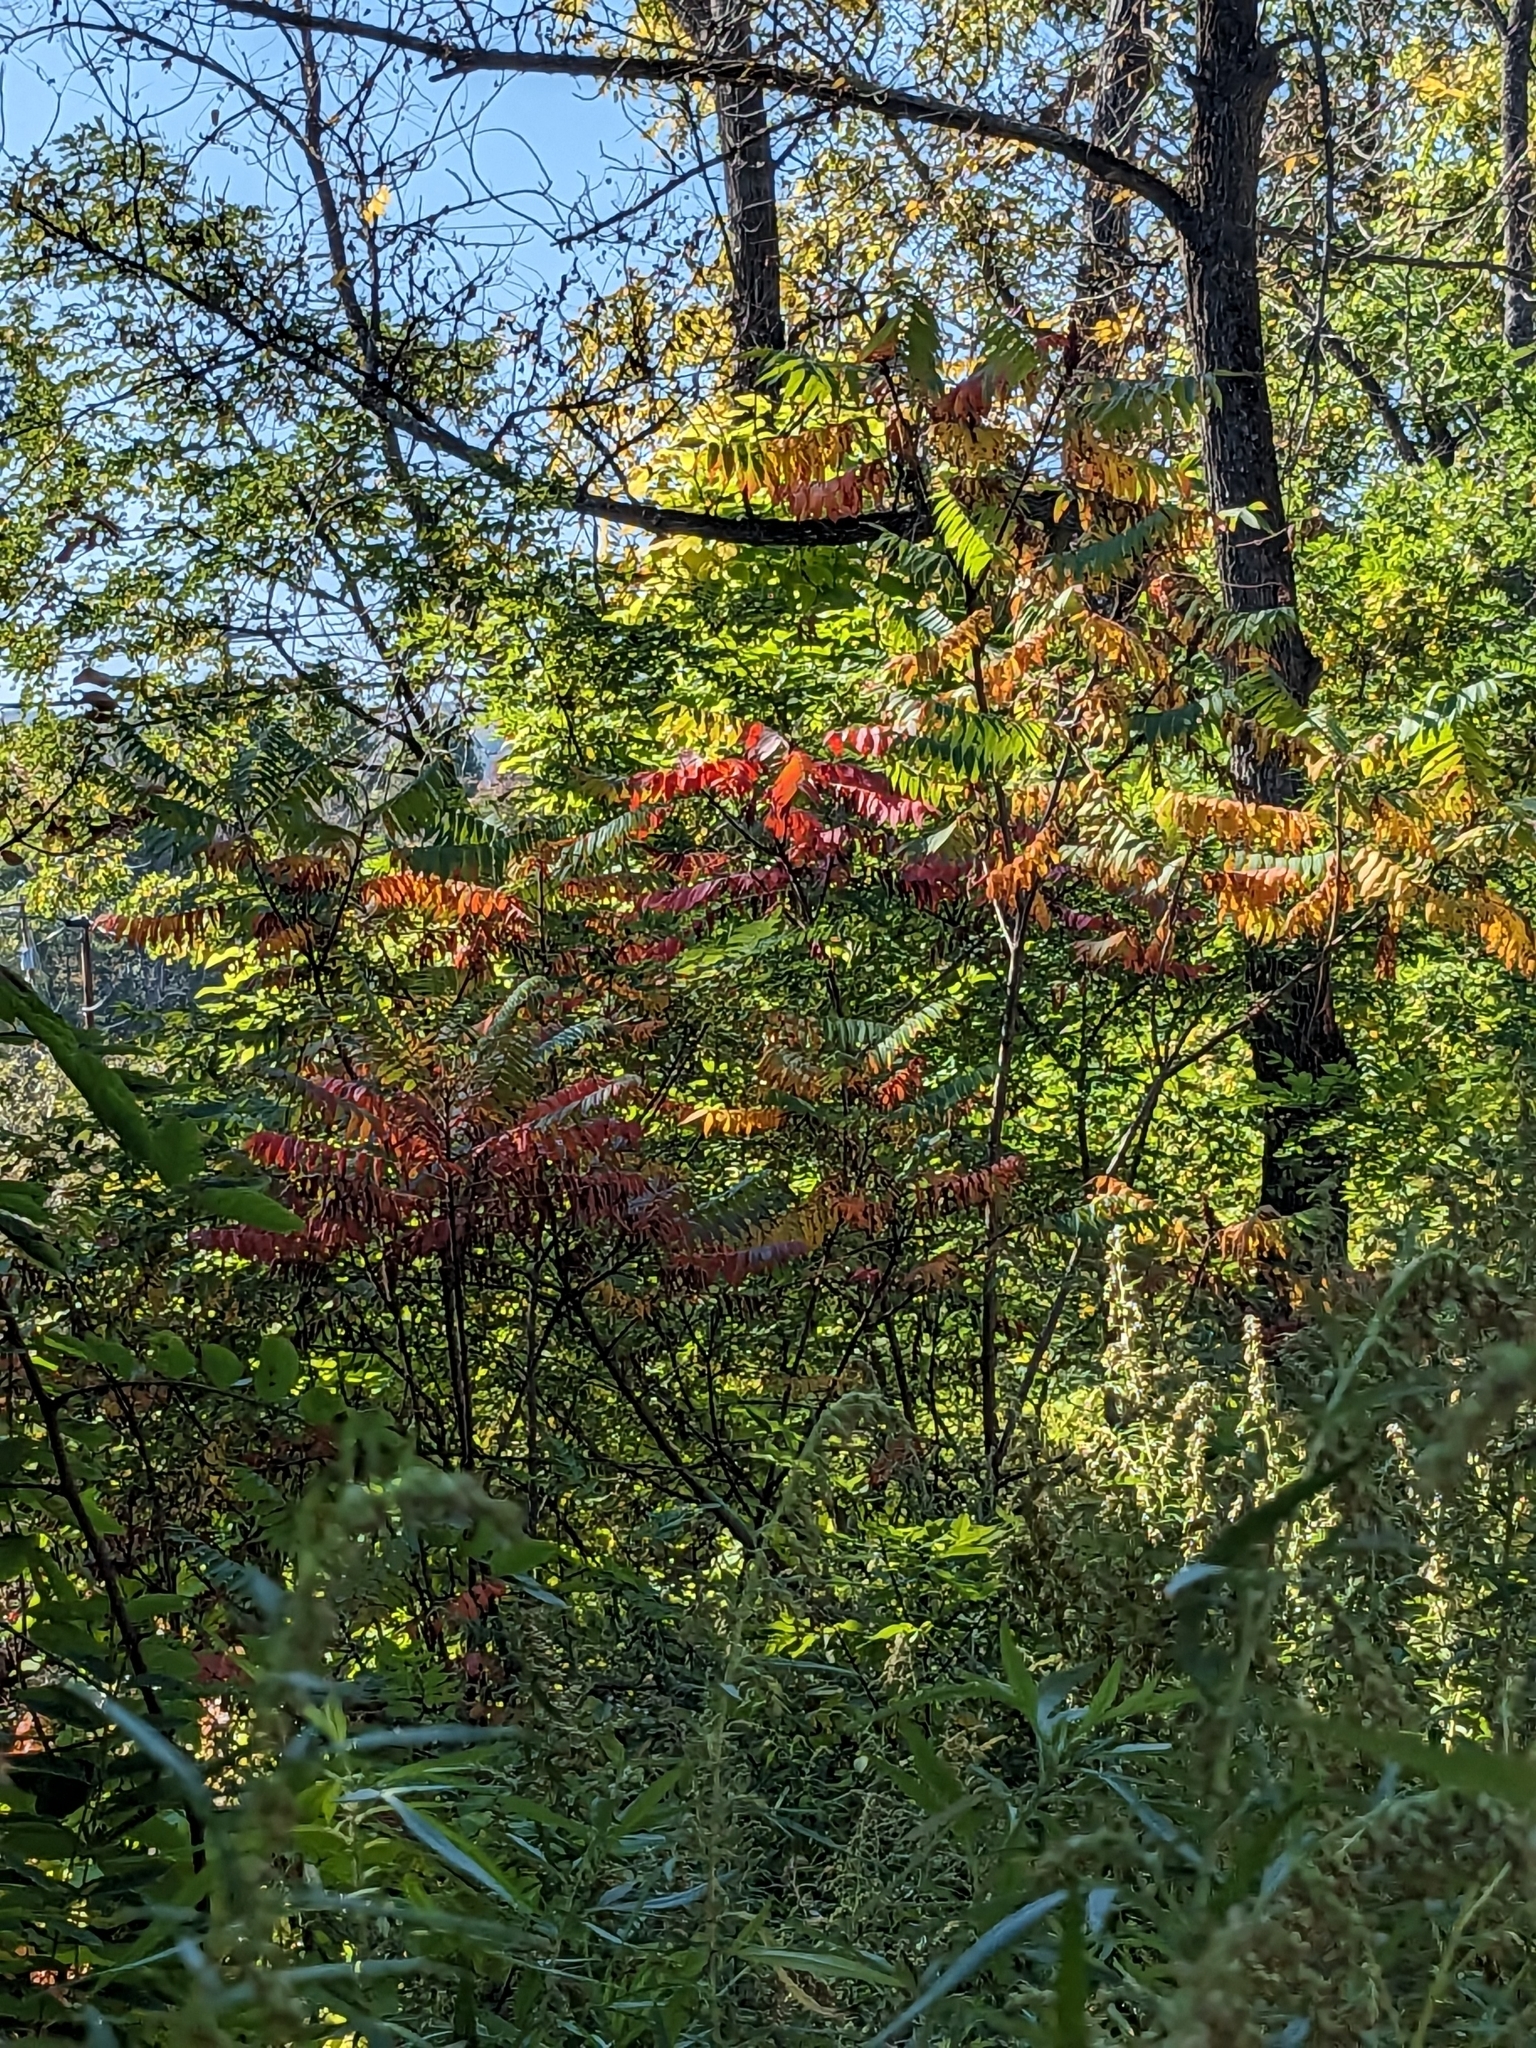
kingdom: Plantae
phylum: Tracheophyta
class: Magnoliopsida
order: Sapindales
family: Anacardiaceae
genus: Rhus
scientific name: Rhus typhina
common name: Staghorn sumac
